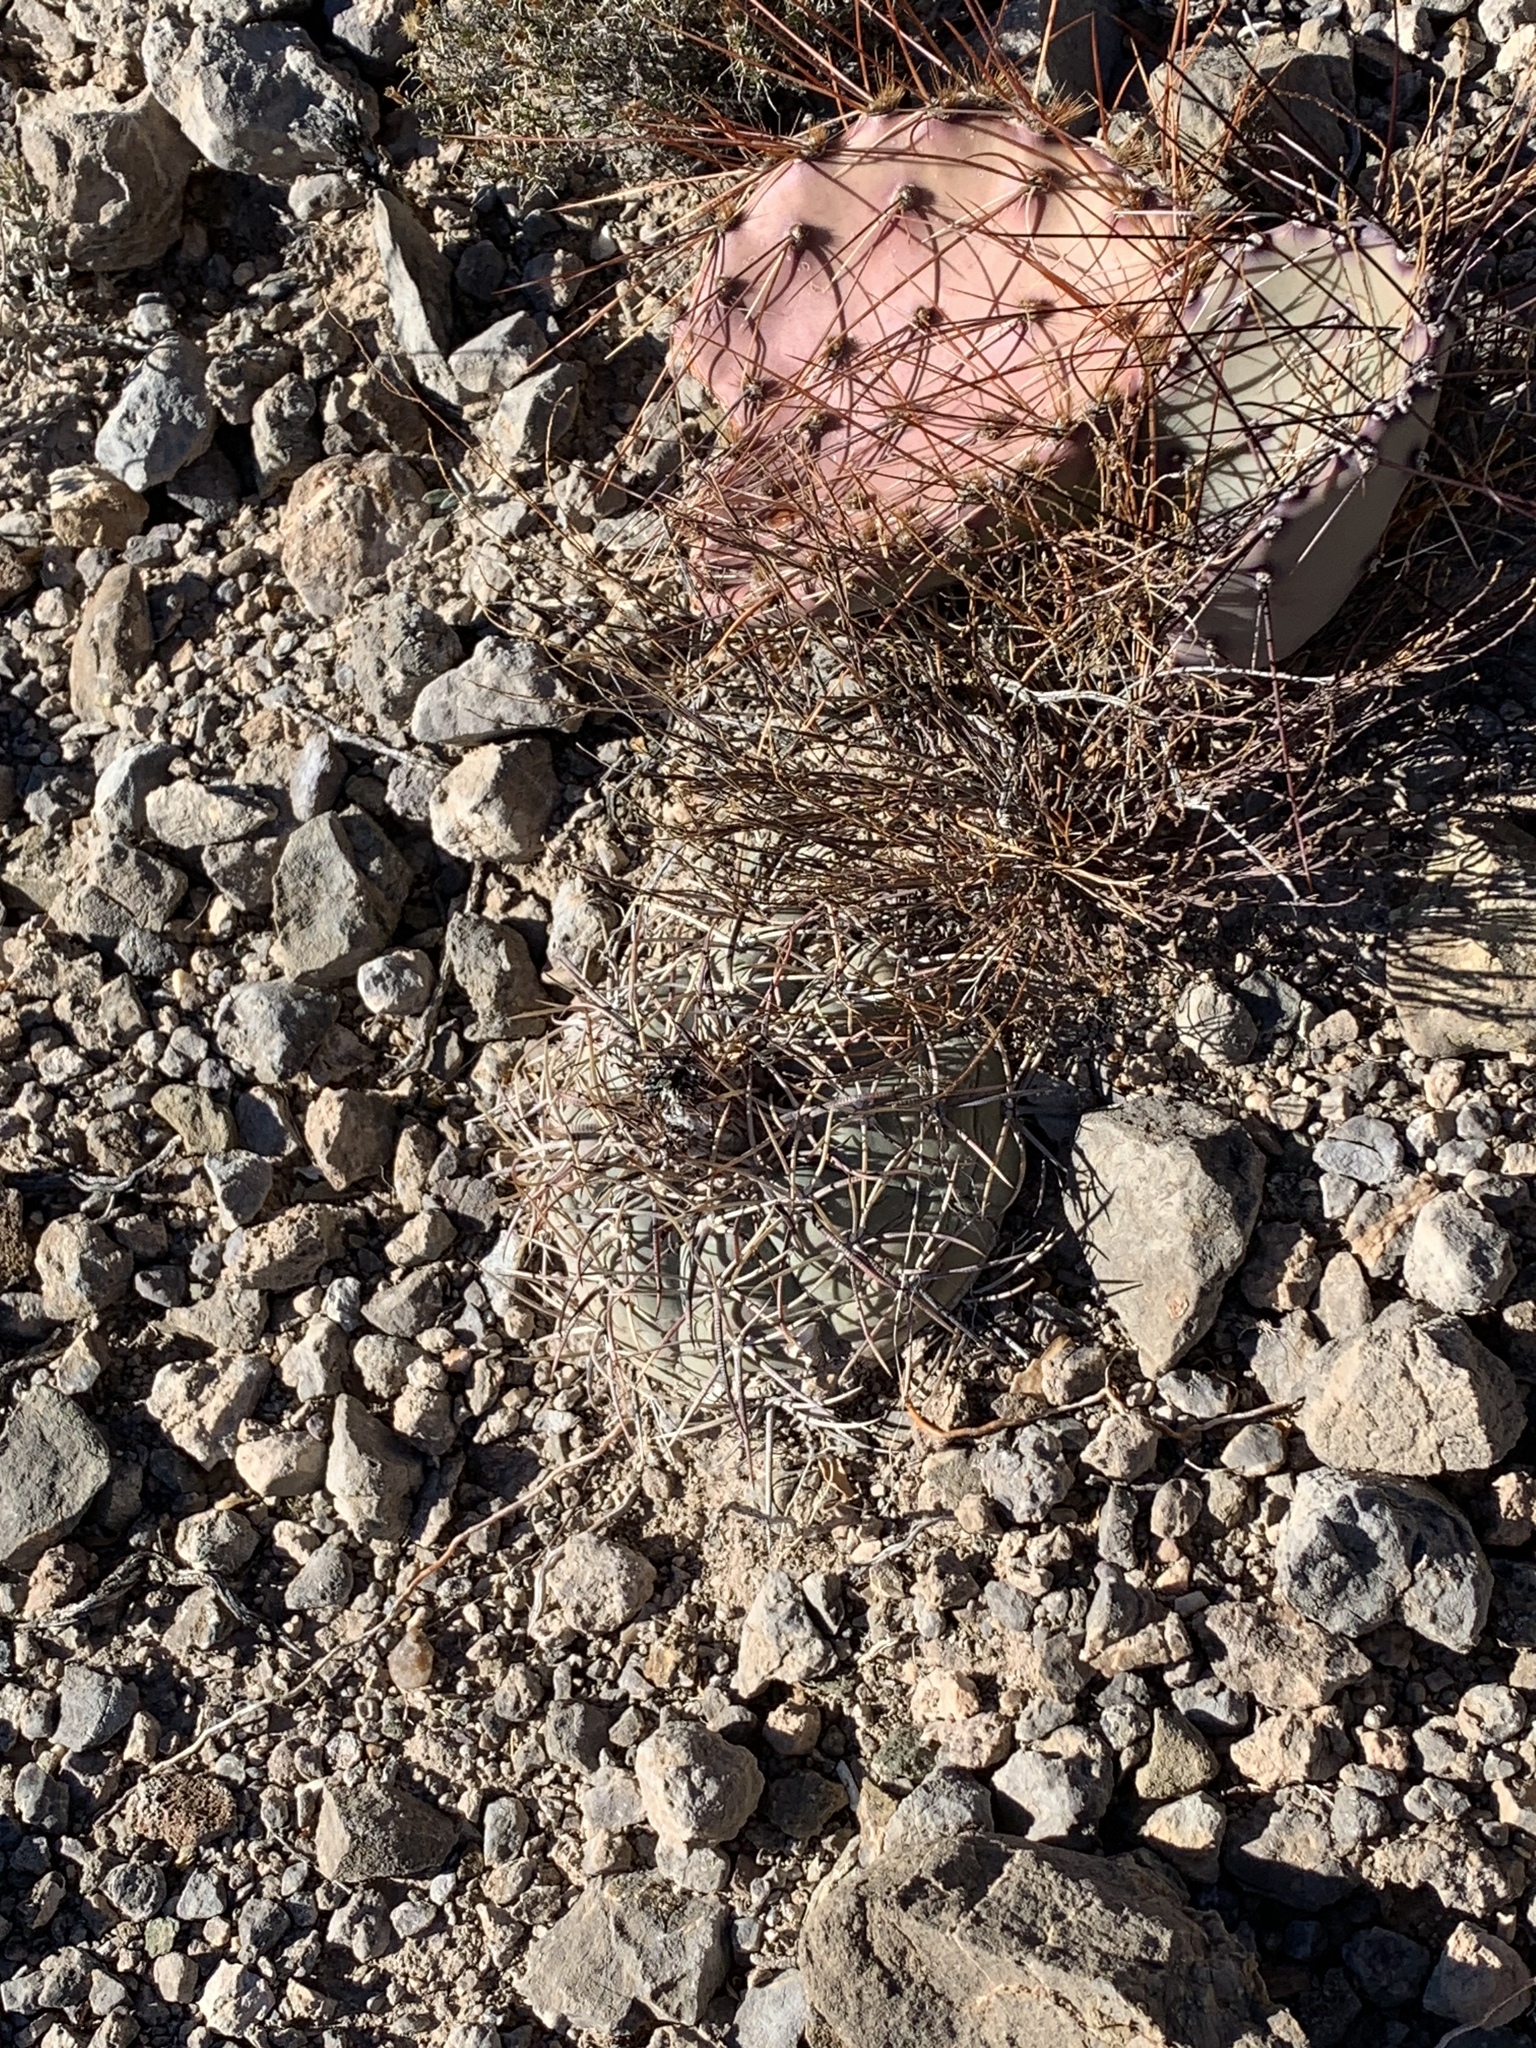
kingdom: Plantae
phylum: Tracheophyta
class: Magnoliopsida
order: Caryophyllales
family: Cactaceae
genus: Echinocactus
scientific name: Echinocactus horizonthalonius
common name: Devilshead
